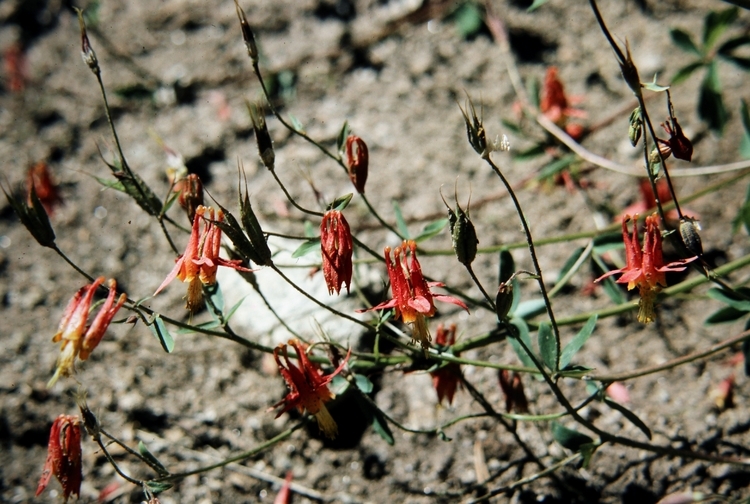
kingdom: Plantae
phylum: Tracheophyta
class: Magnoliopsida
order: Ranunculales
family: Ranunculaceae
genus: Aquilegia
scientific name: Aquilegia formosa
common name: Sitka columbine
